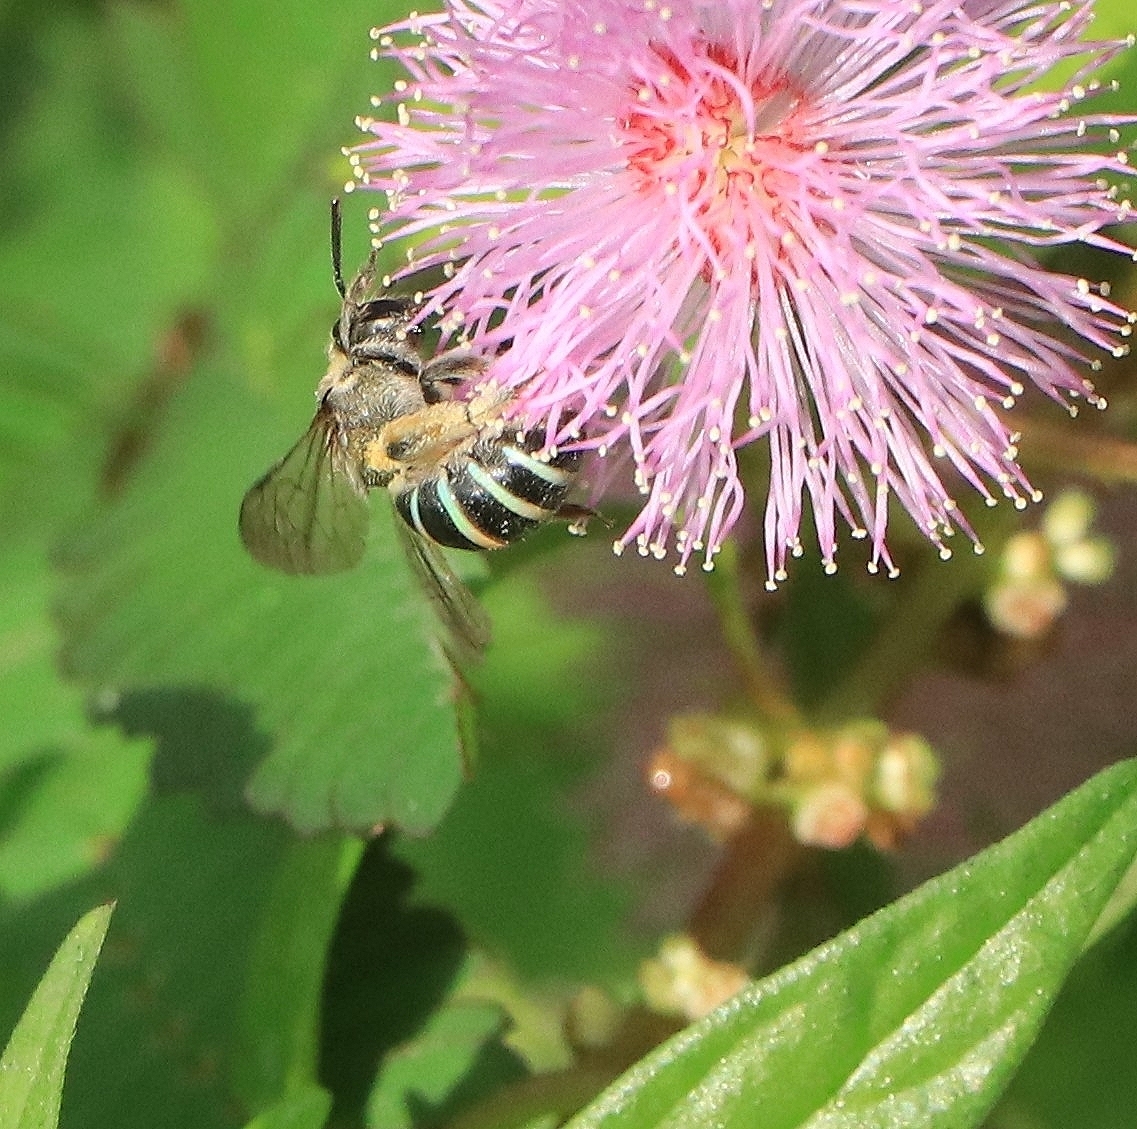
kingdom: Animalia
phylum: Arthropoda
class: Insecta
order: Hymenoptera
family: Halictidae
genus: Nomia
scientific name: Nomia westwoodi
